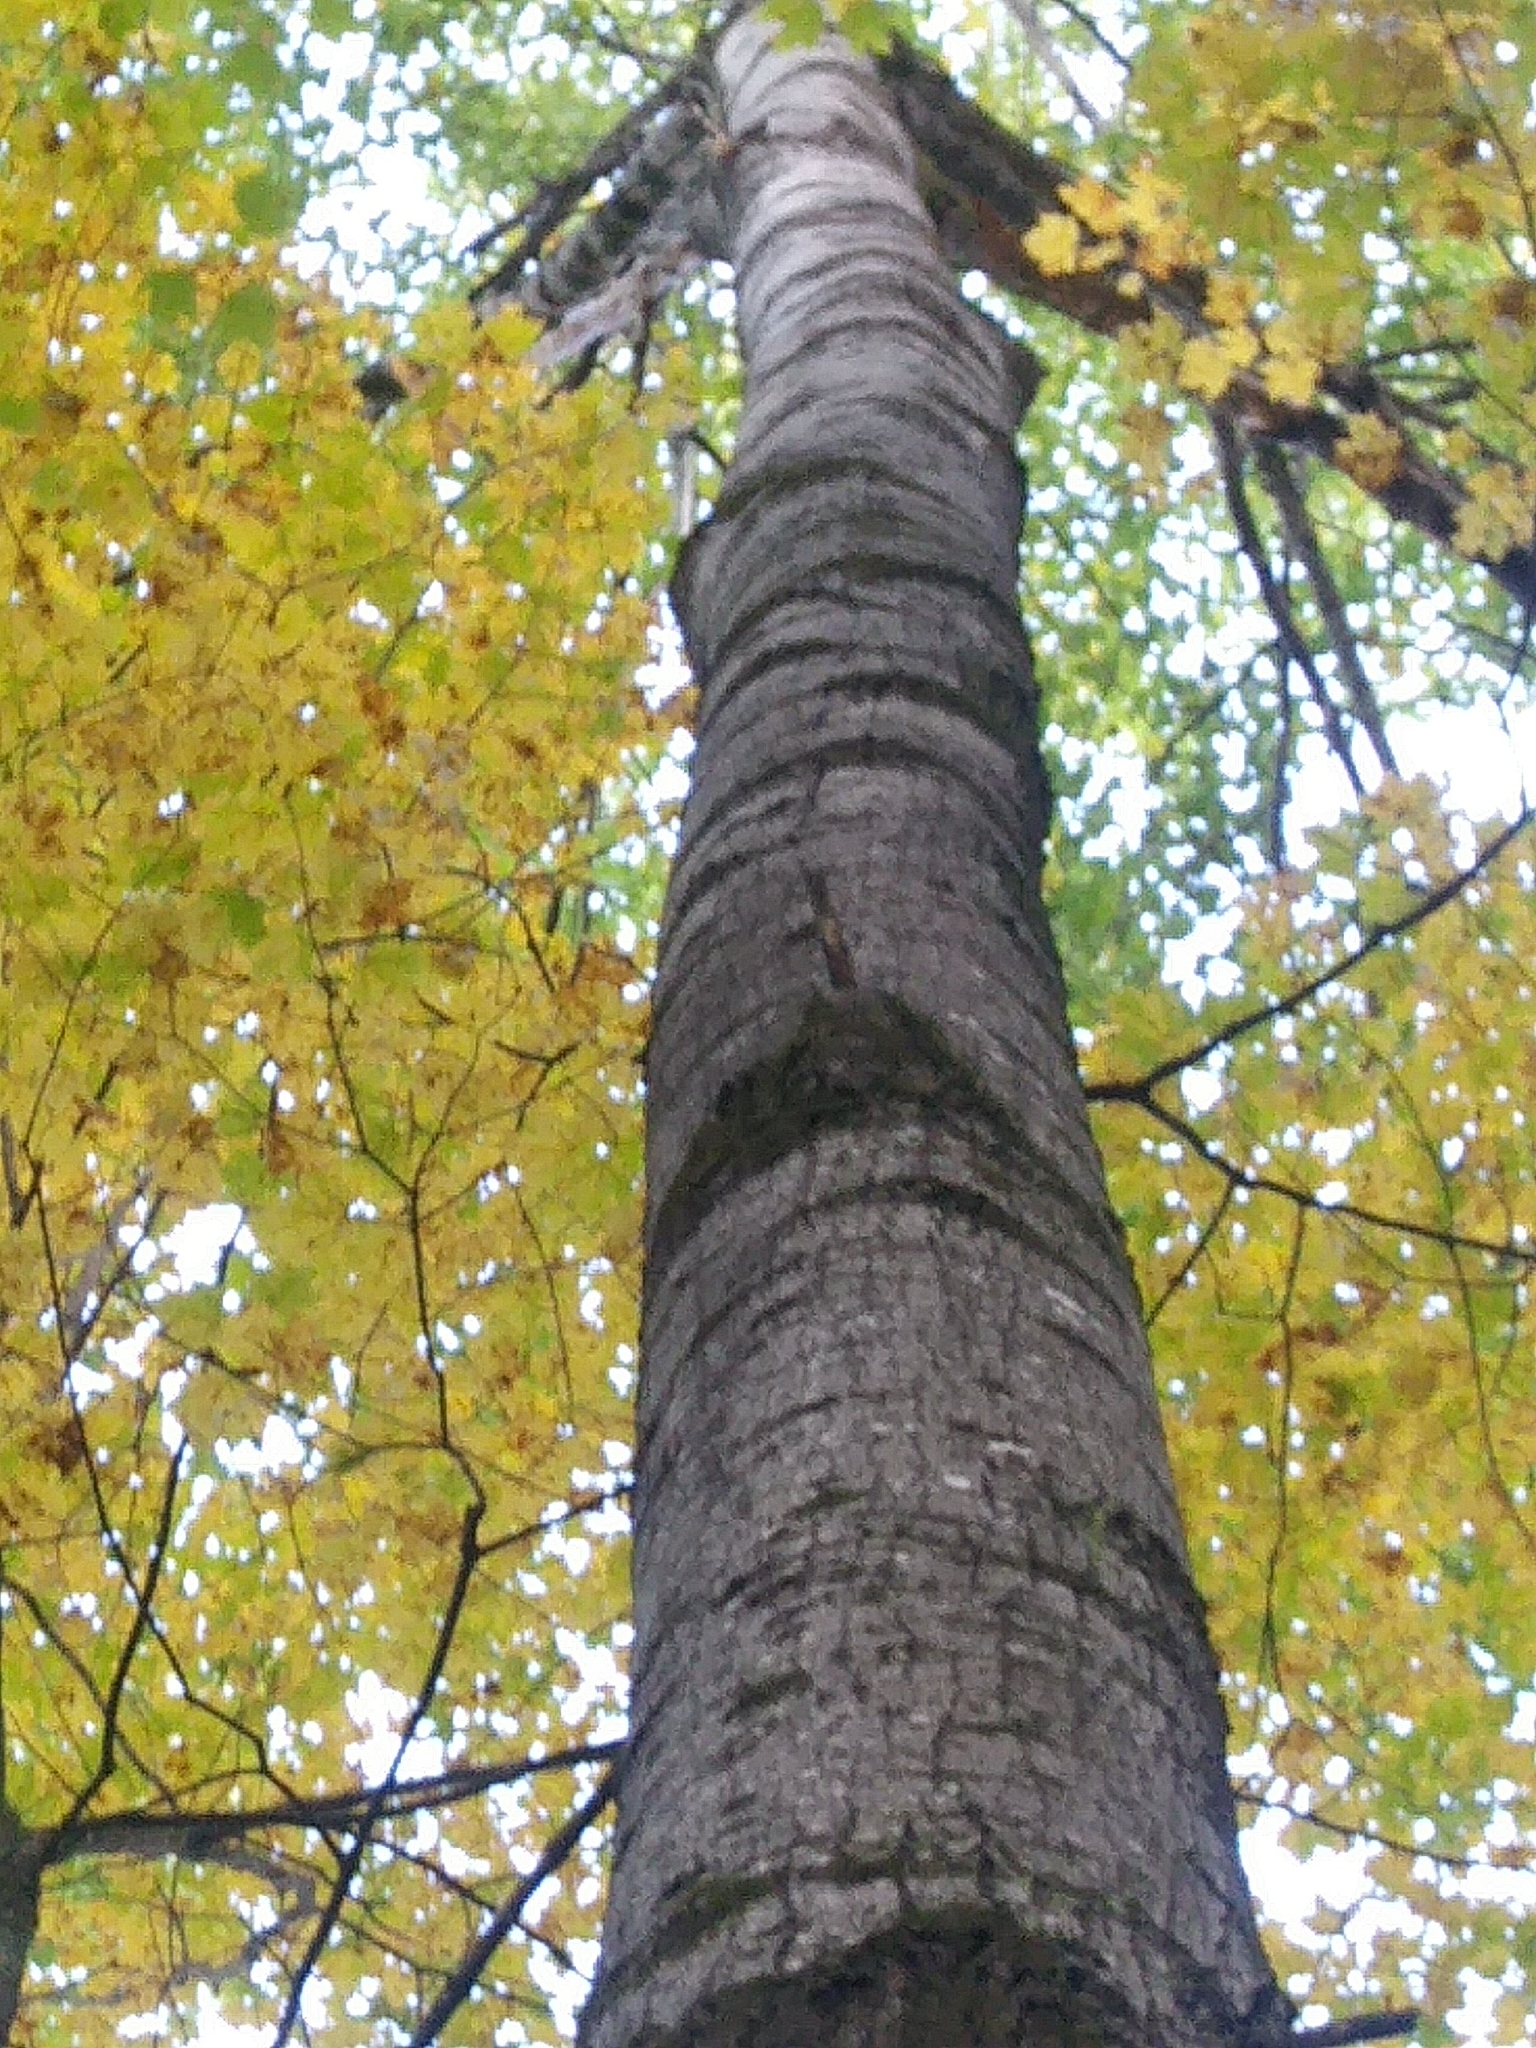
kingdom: Plantae
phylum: Tracheophyta
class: Magnoliopsida
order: Malpighiales
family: Salicaceae
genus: Populus
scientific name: Populus grandidentata
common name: Bigtooth aspen
